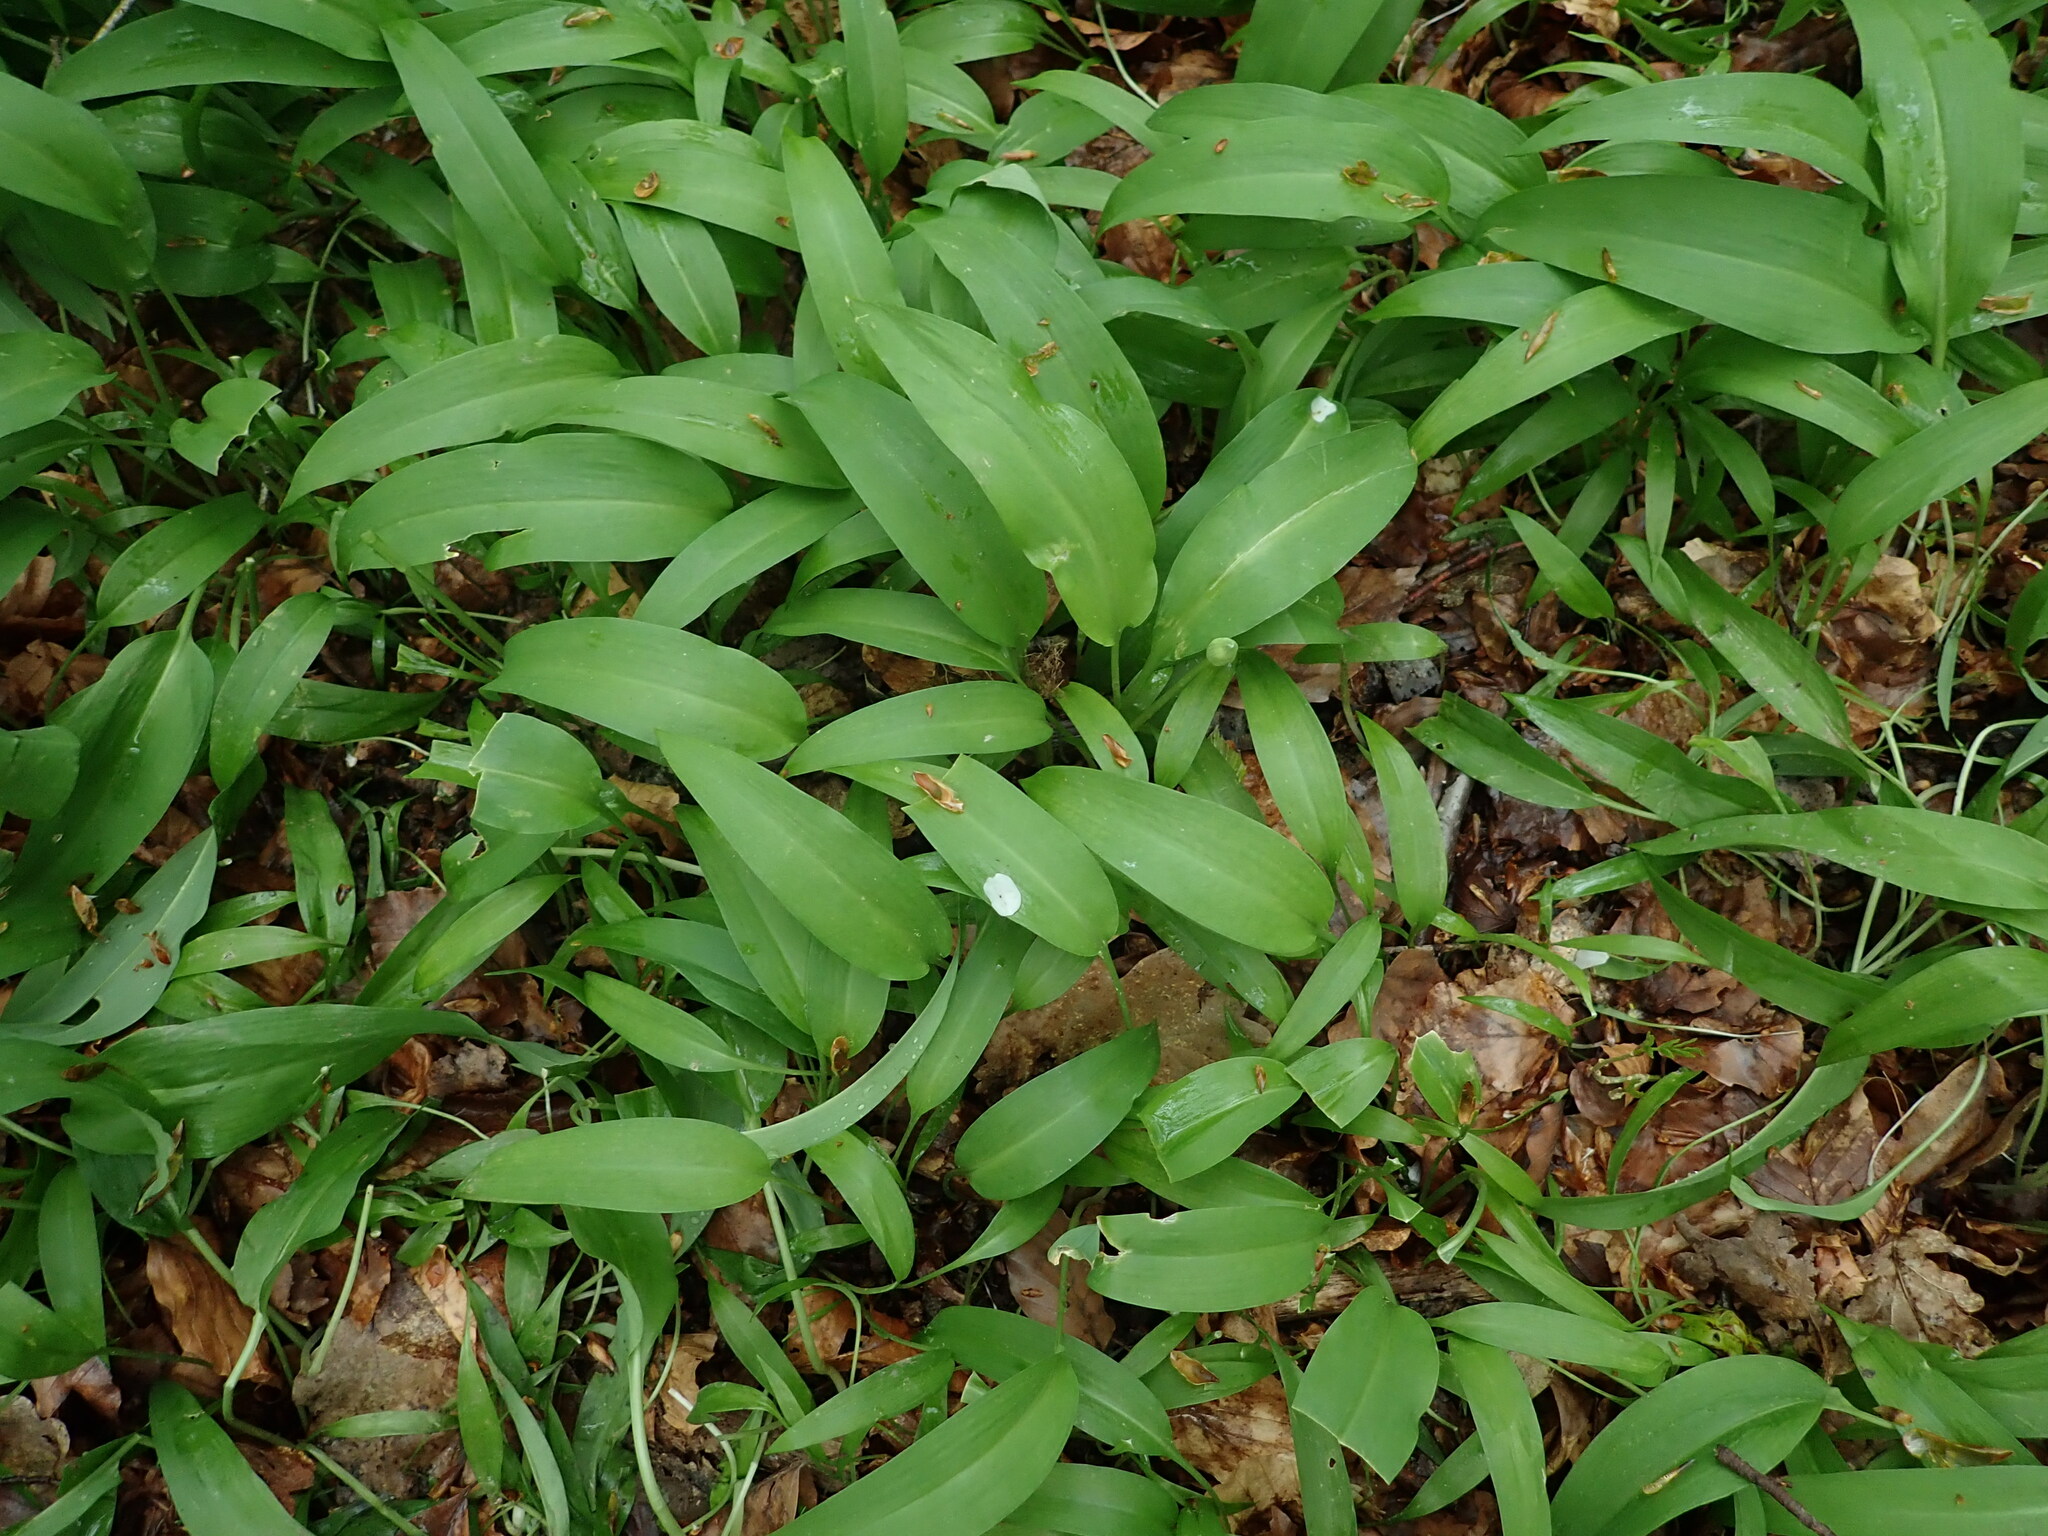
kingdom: Plantae
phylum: Tracheophyta
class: Liliopsida
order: Asparagales
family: Amaryllidaceae
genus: Allium
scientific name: Allium ursinum
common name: Ramsons
